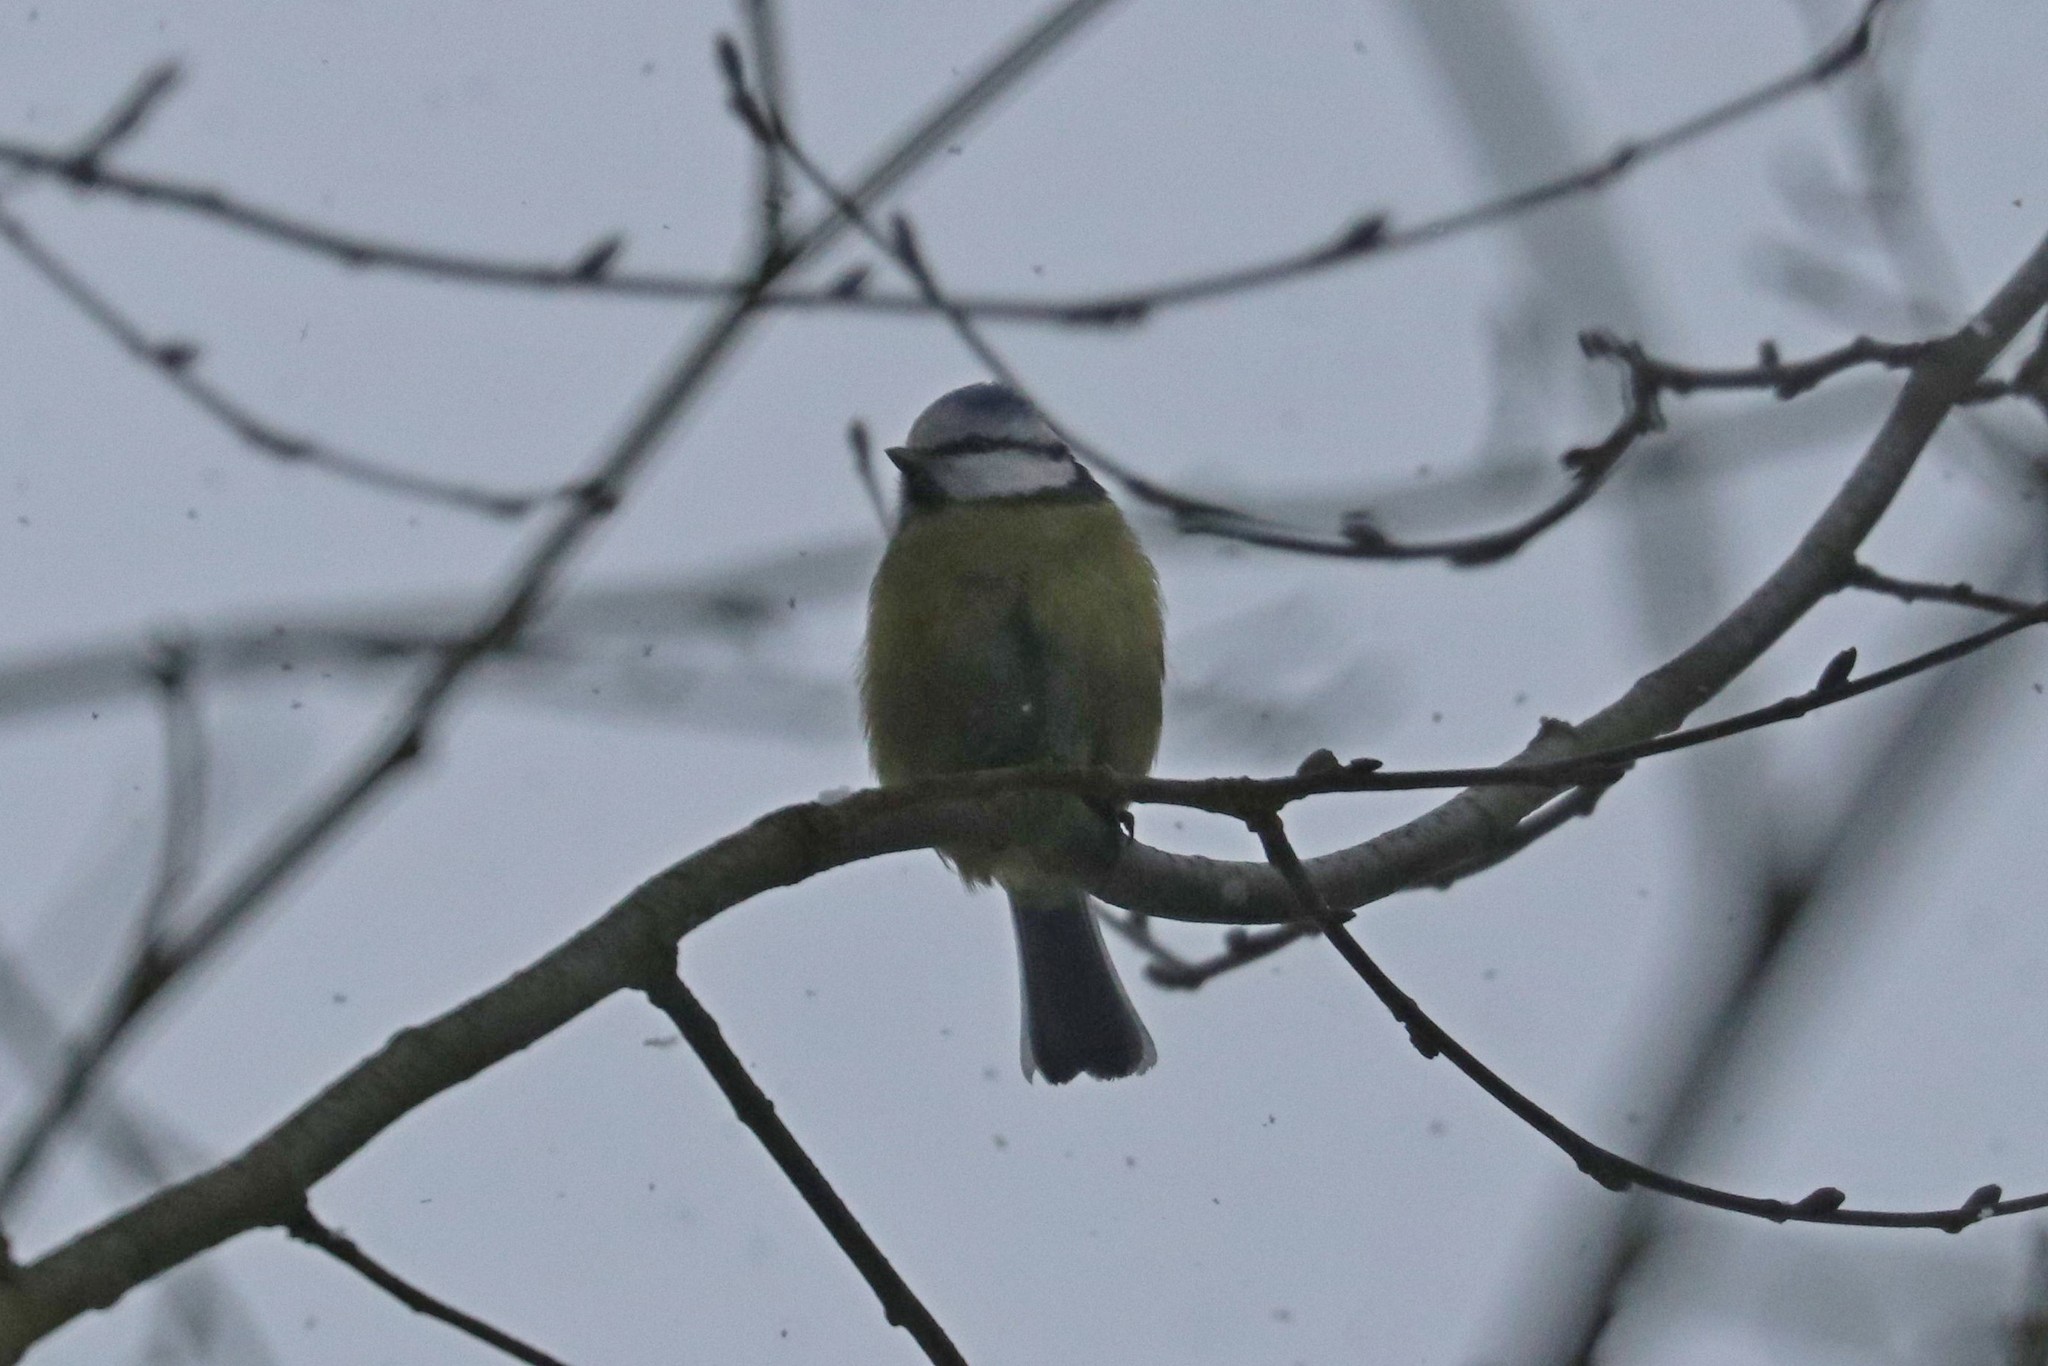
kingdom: Animalia
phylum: Chordata
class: Aves
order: Passeriformes
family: Paridae
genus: Cyanistes
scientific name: Cyanistes caeruleus
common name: Eurasian blue tit
